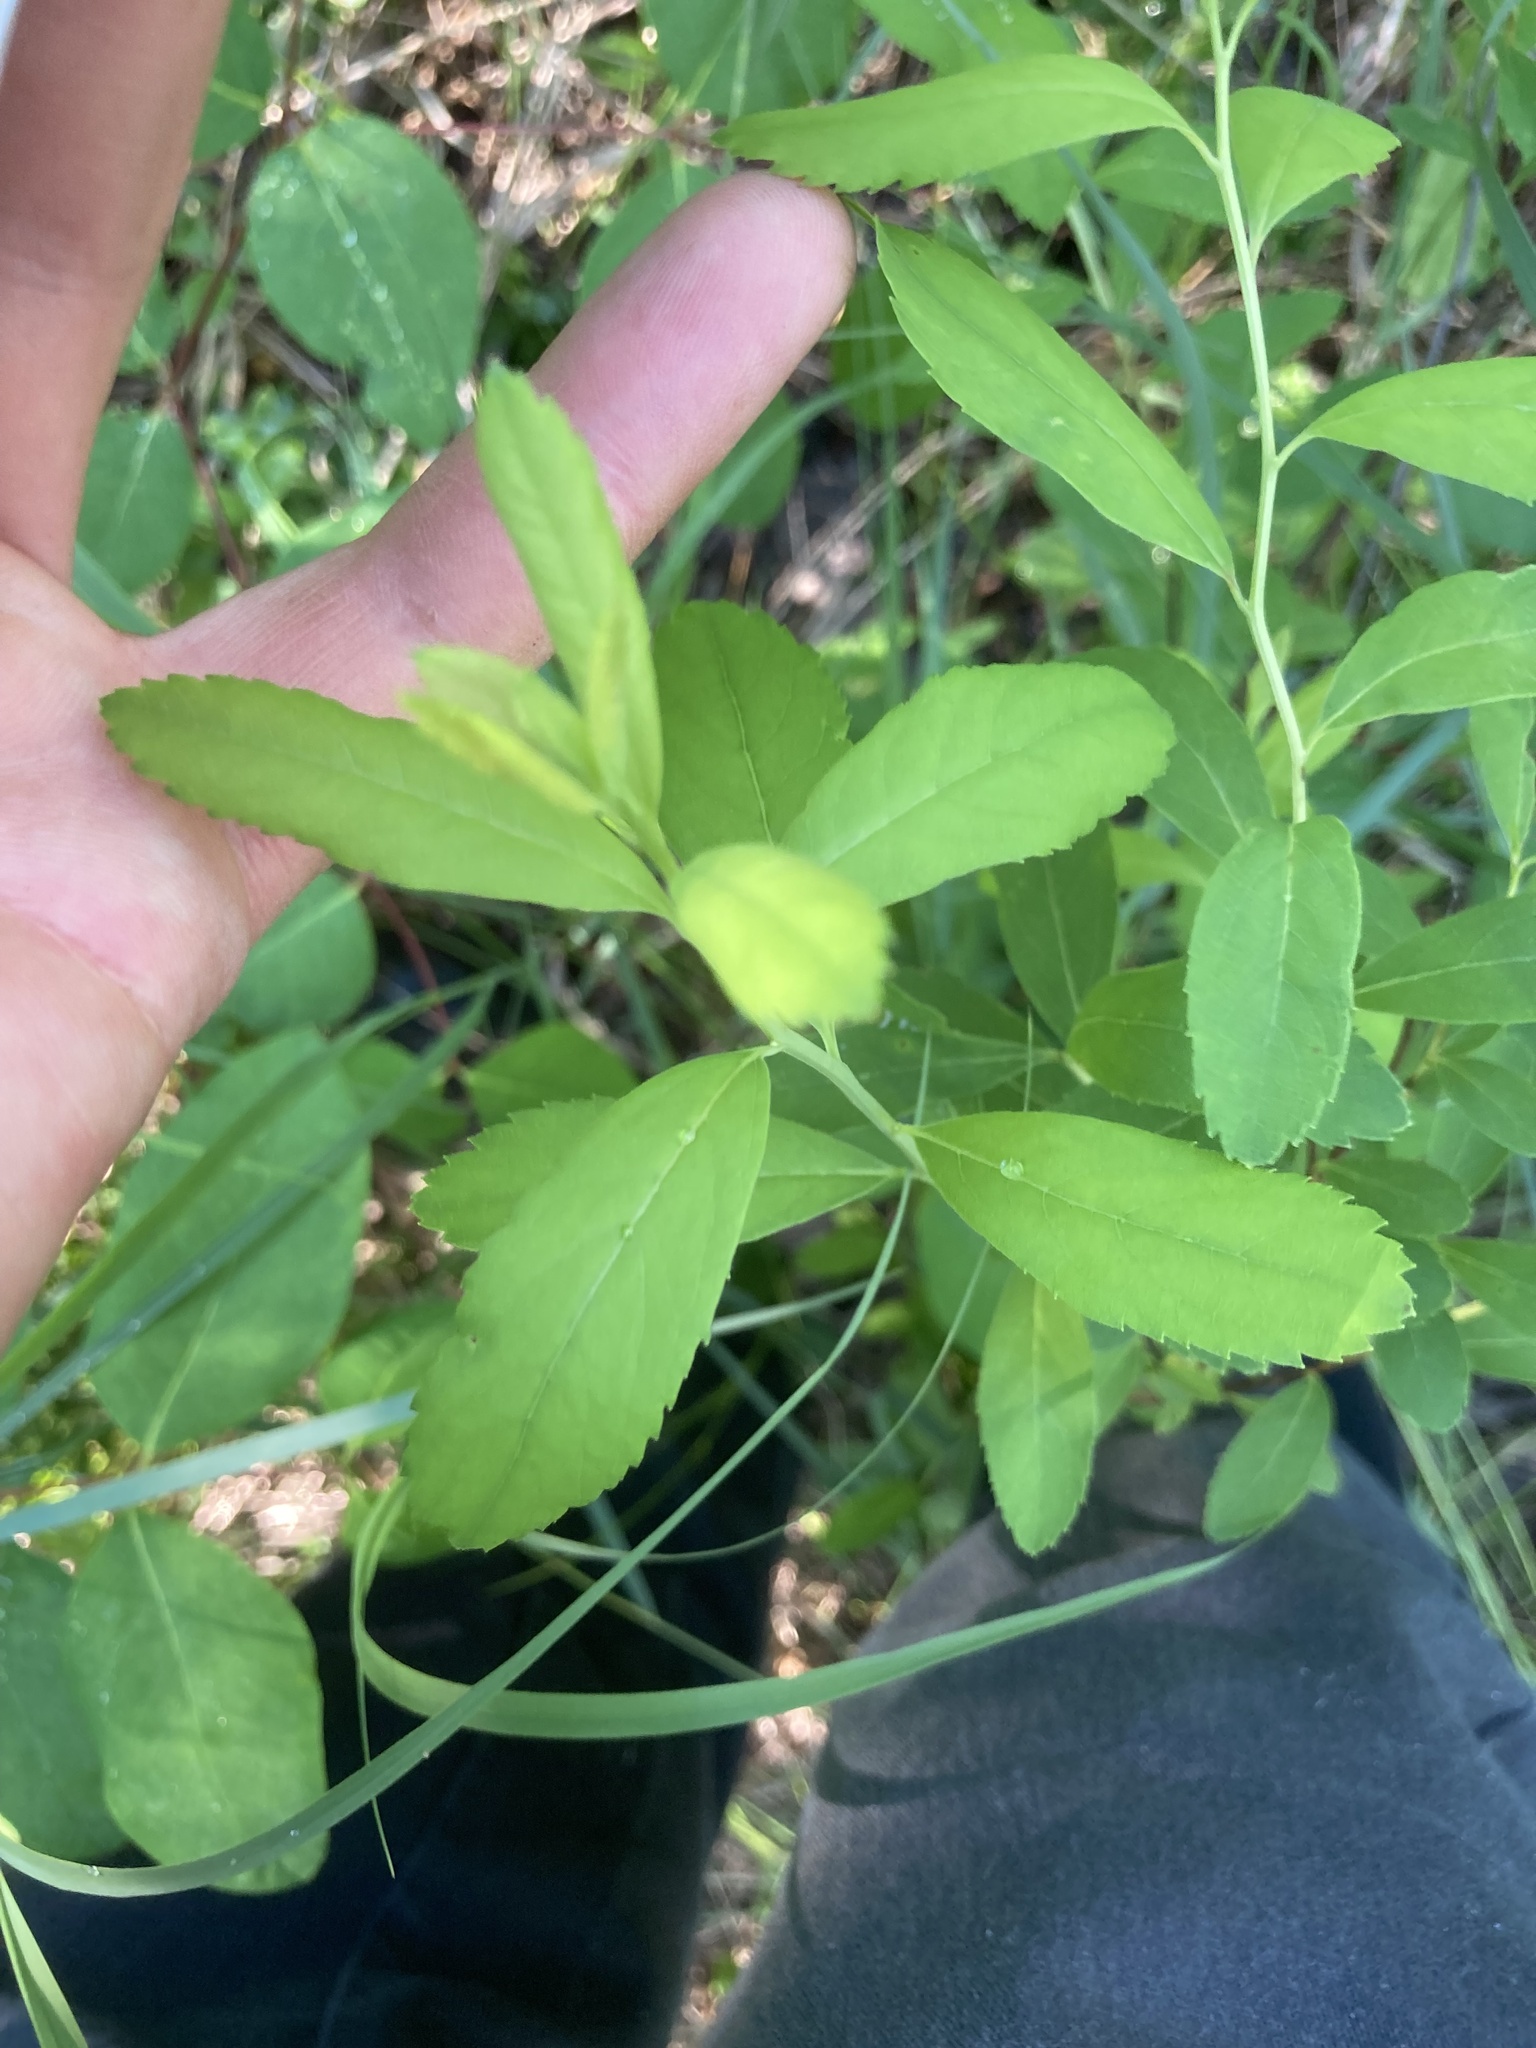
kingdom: Plantae
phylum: Tracheophyta
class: Magnoliopsida
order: Rosales
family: Rosaceae
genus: Spiraea
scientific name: Spiraea alba
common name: Pale bridewort
